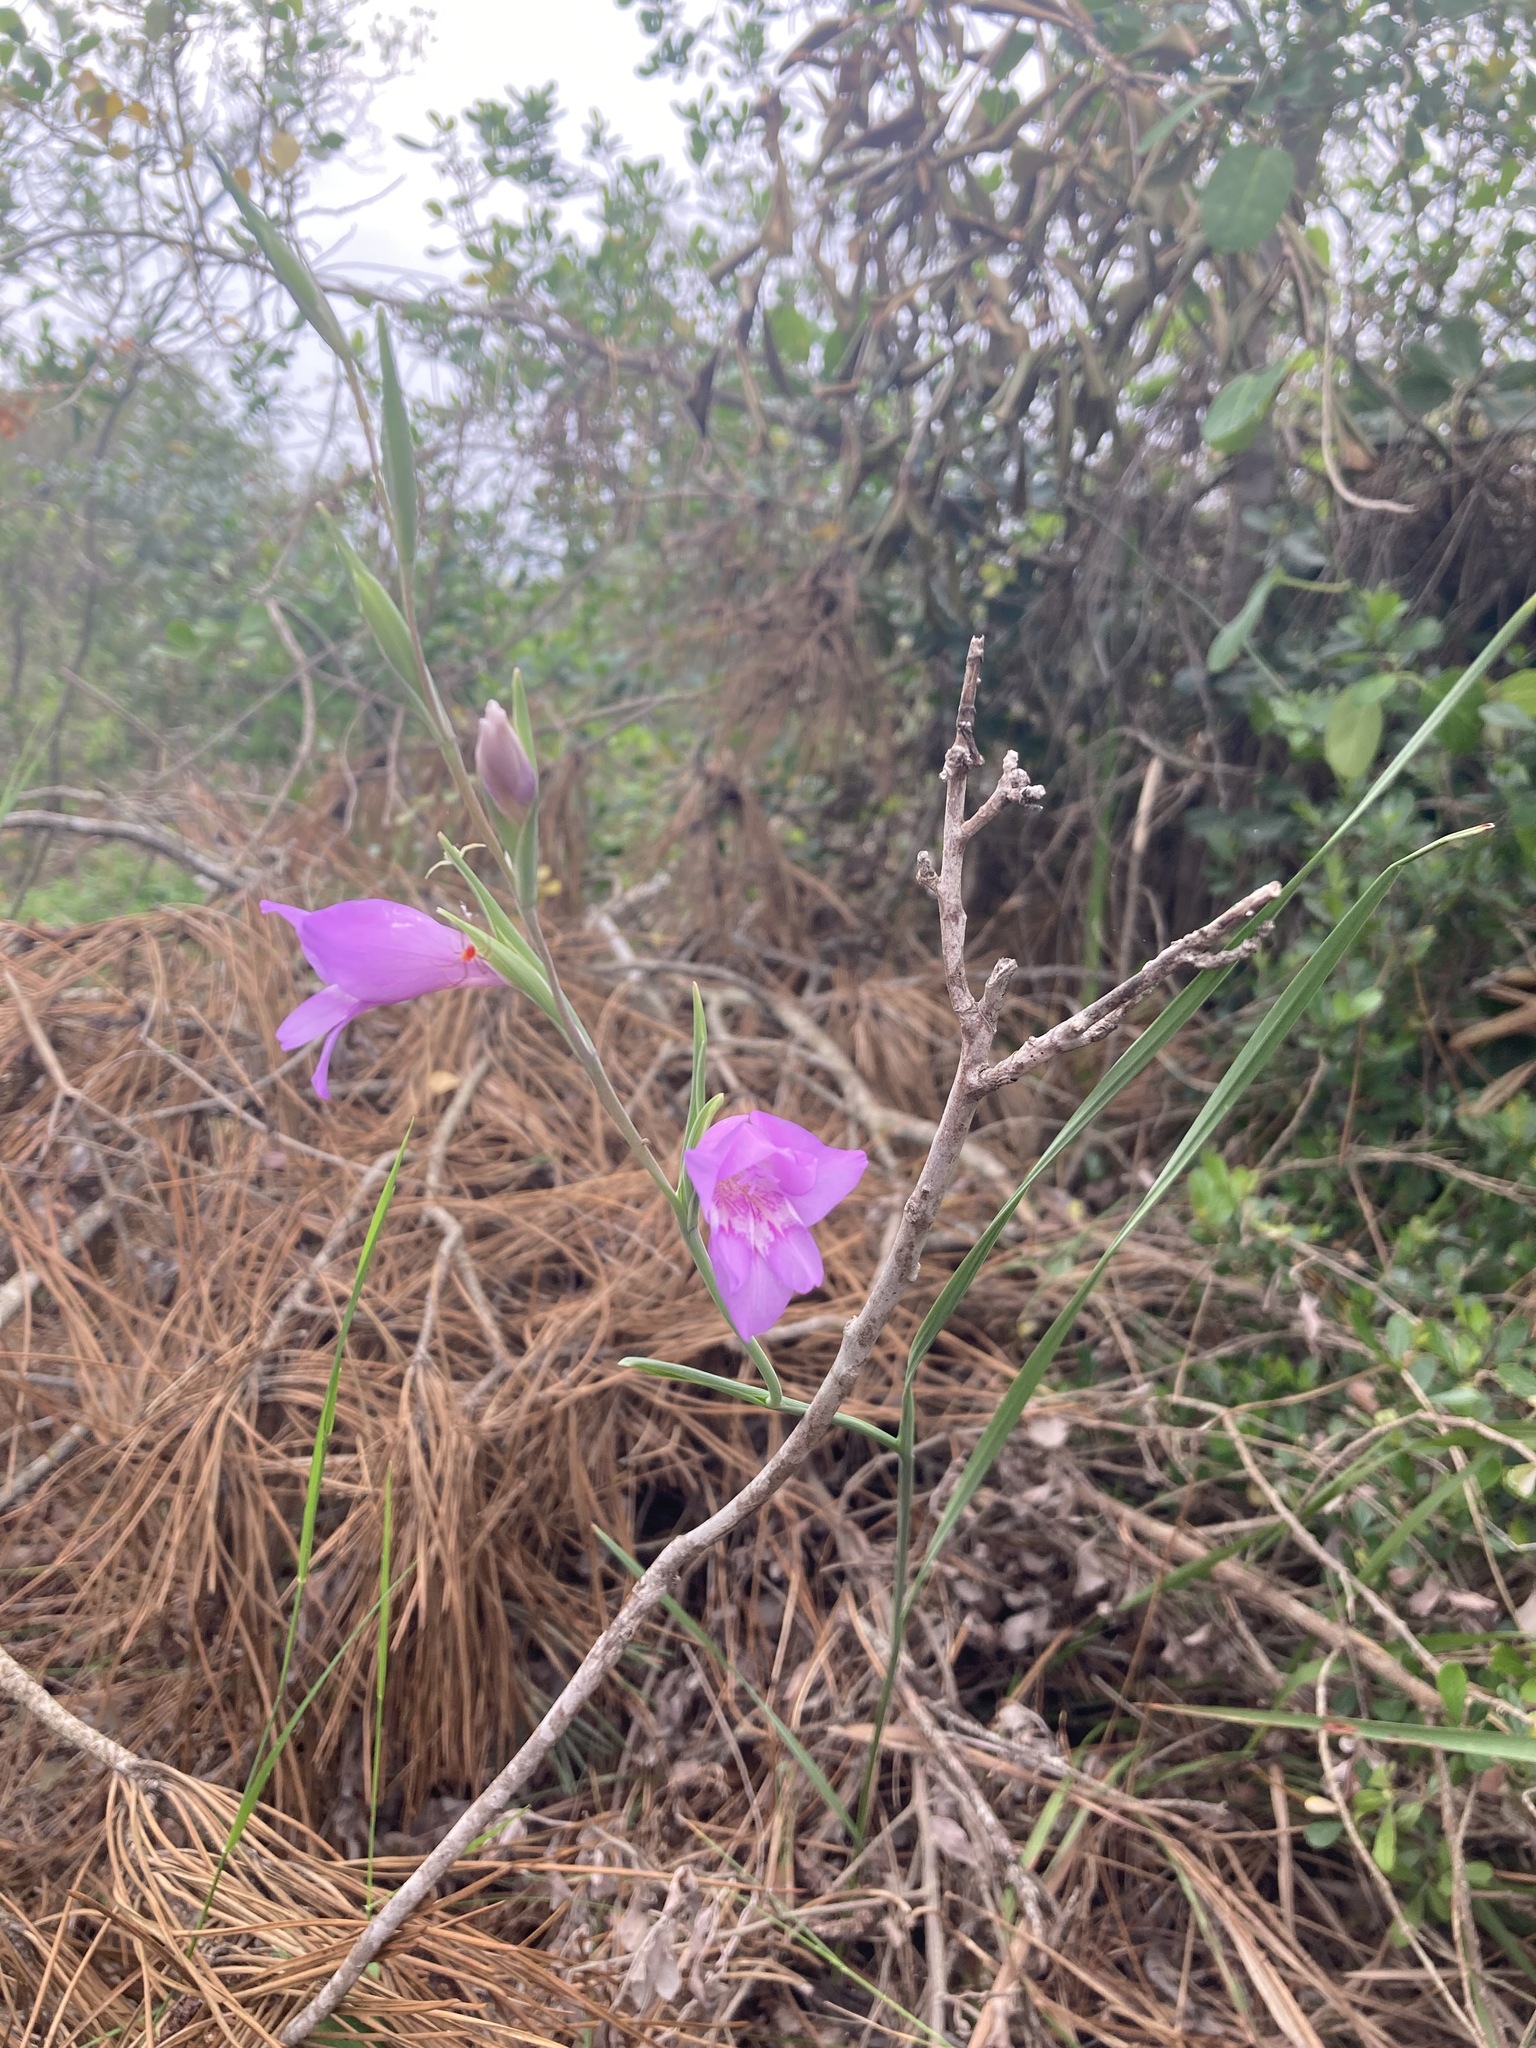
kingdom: Plantae
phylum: Tracheophyta
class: Liliopsida
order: Asparagales
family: Iridaceae
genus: Gladiolus
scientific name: Gladiolus carinatus
